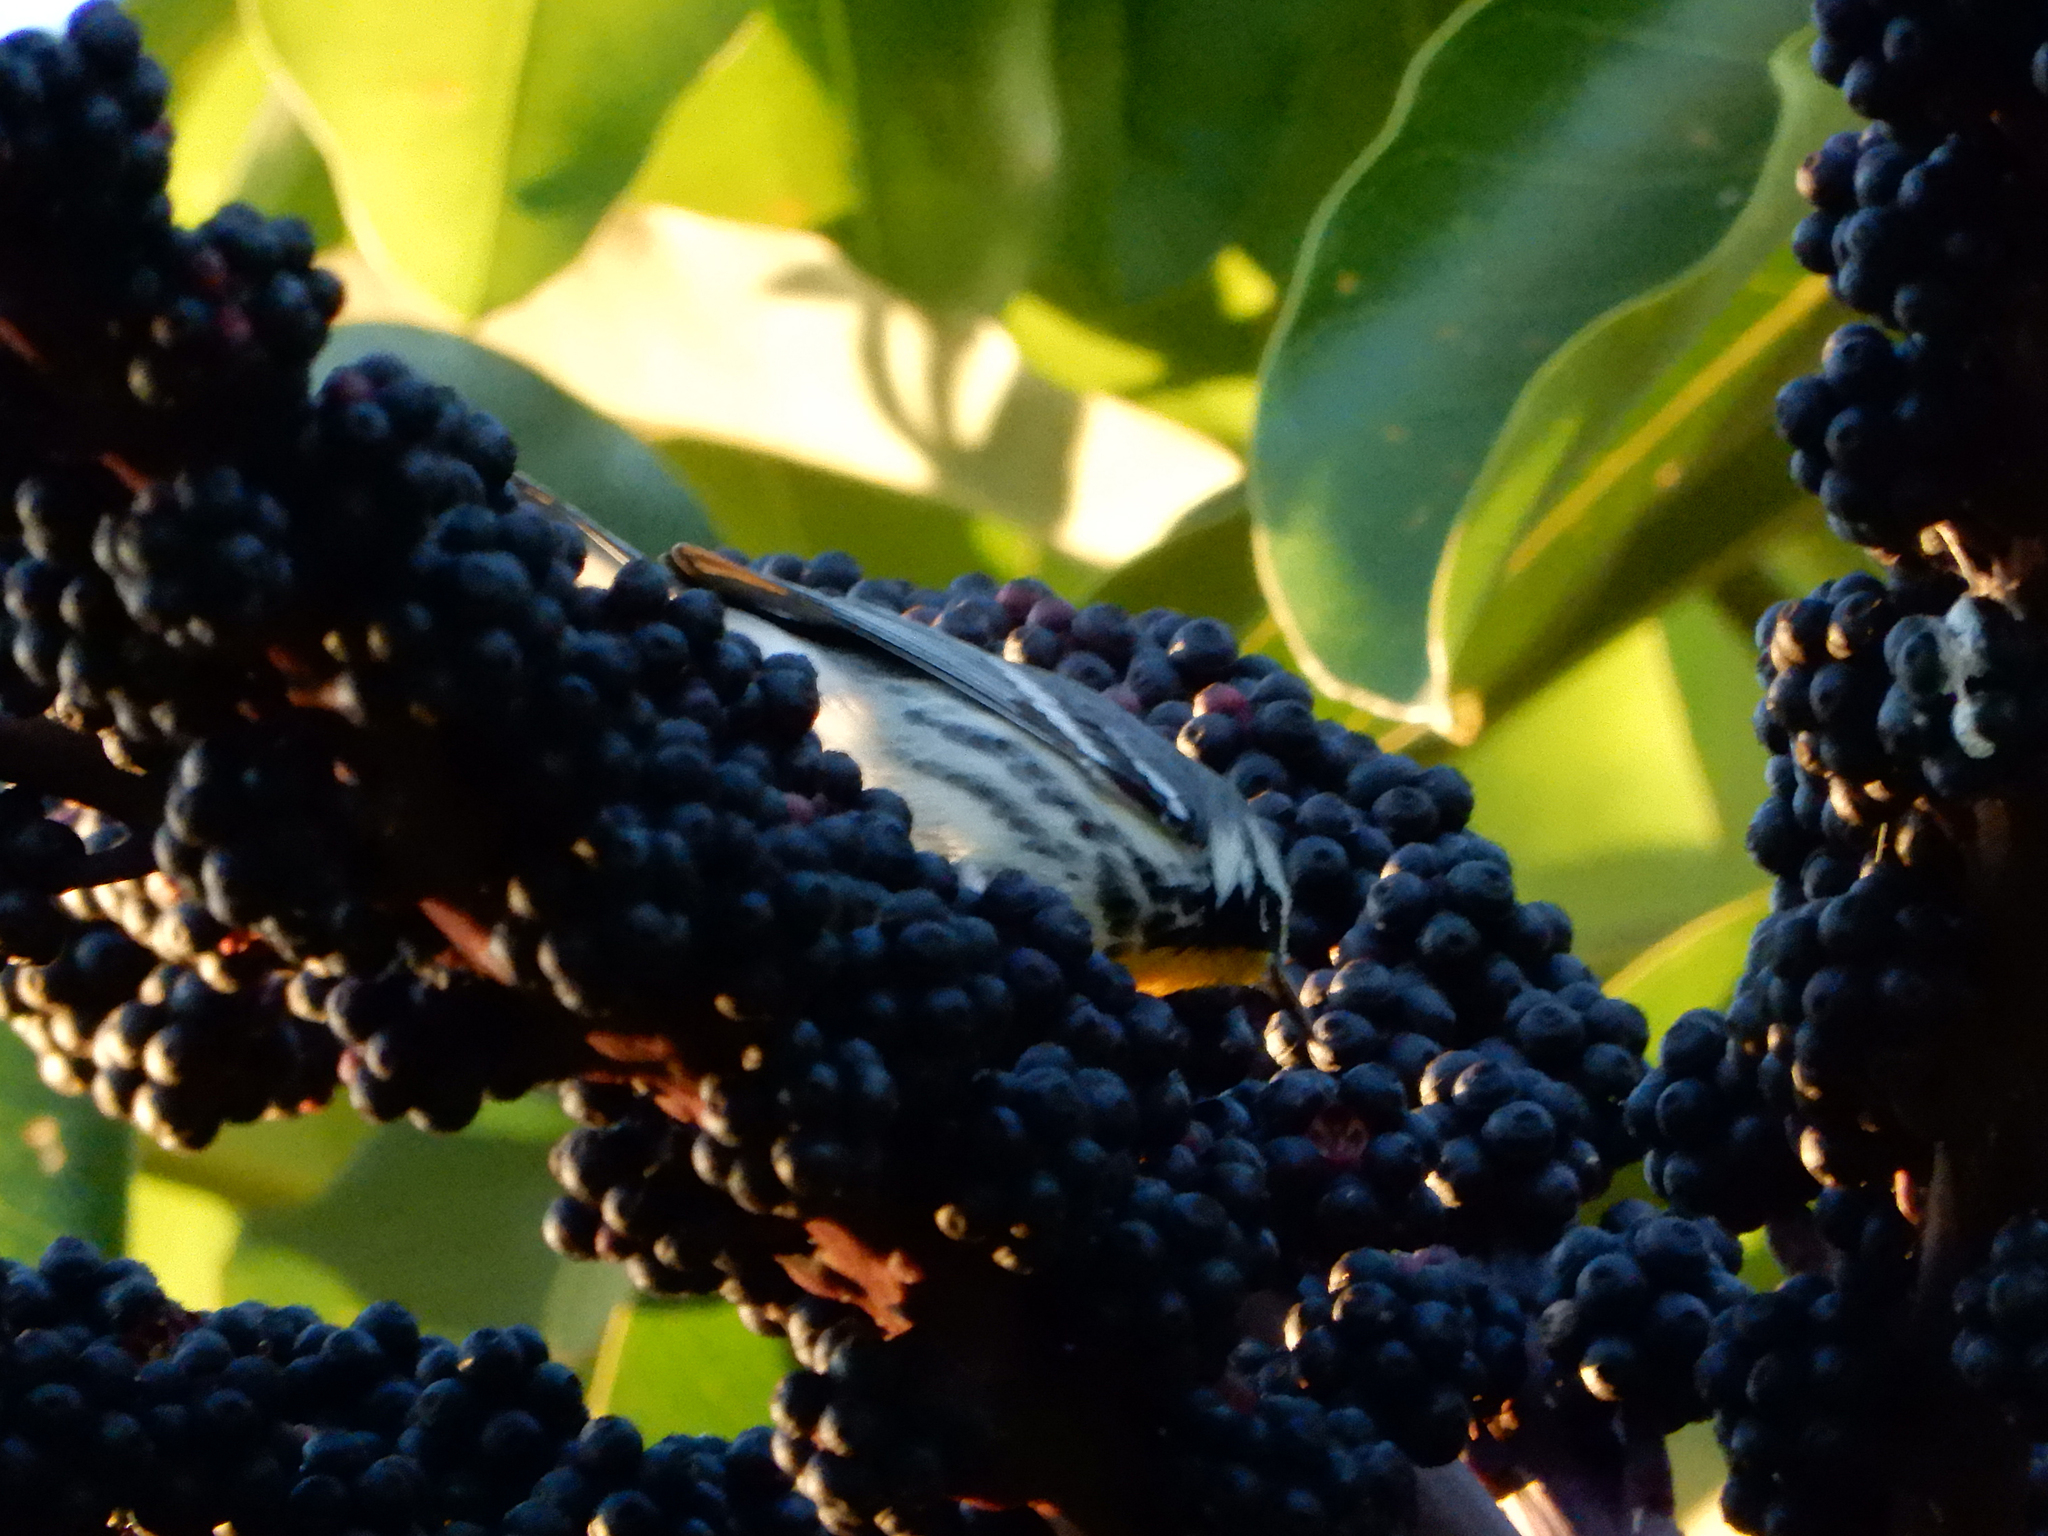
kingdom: Animalia
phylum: Chordata
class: Aves
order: Passeriformes
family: Parulidae
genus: Setophaga
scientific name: Setophaga dominica
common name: Yellow-throated warbler
